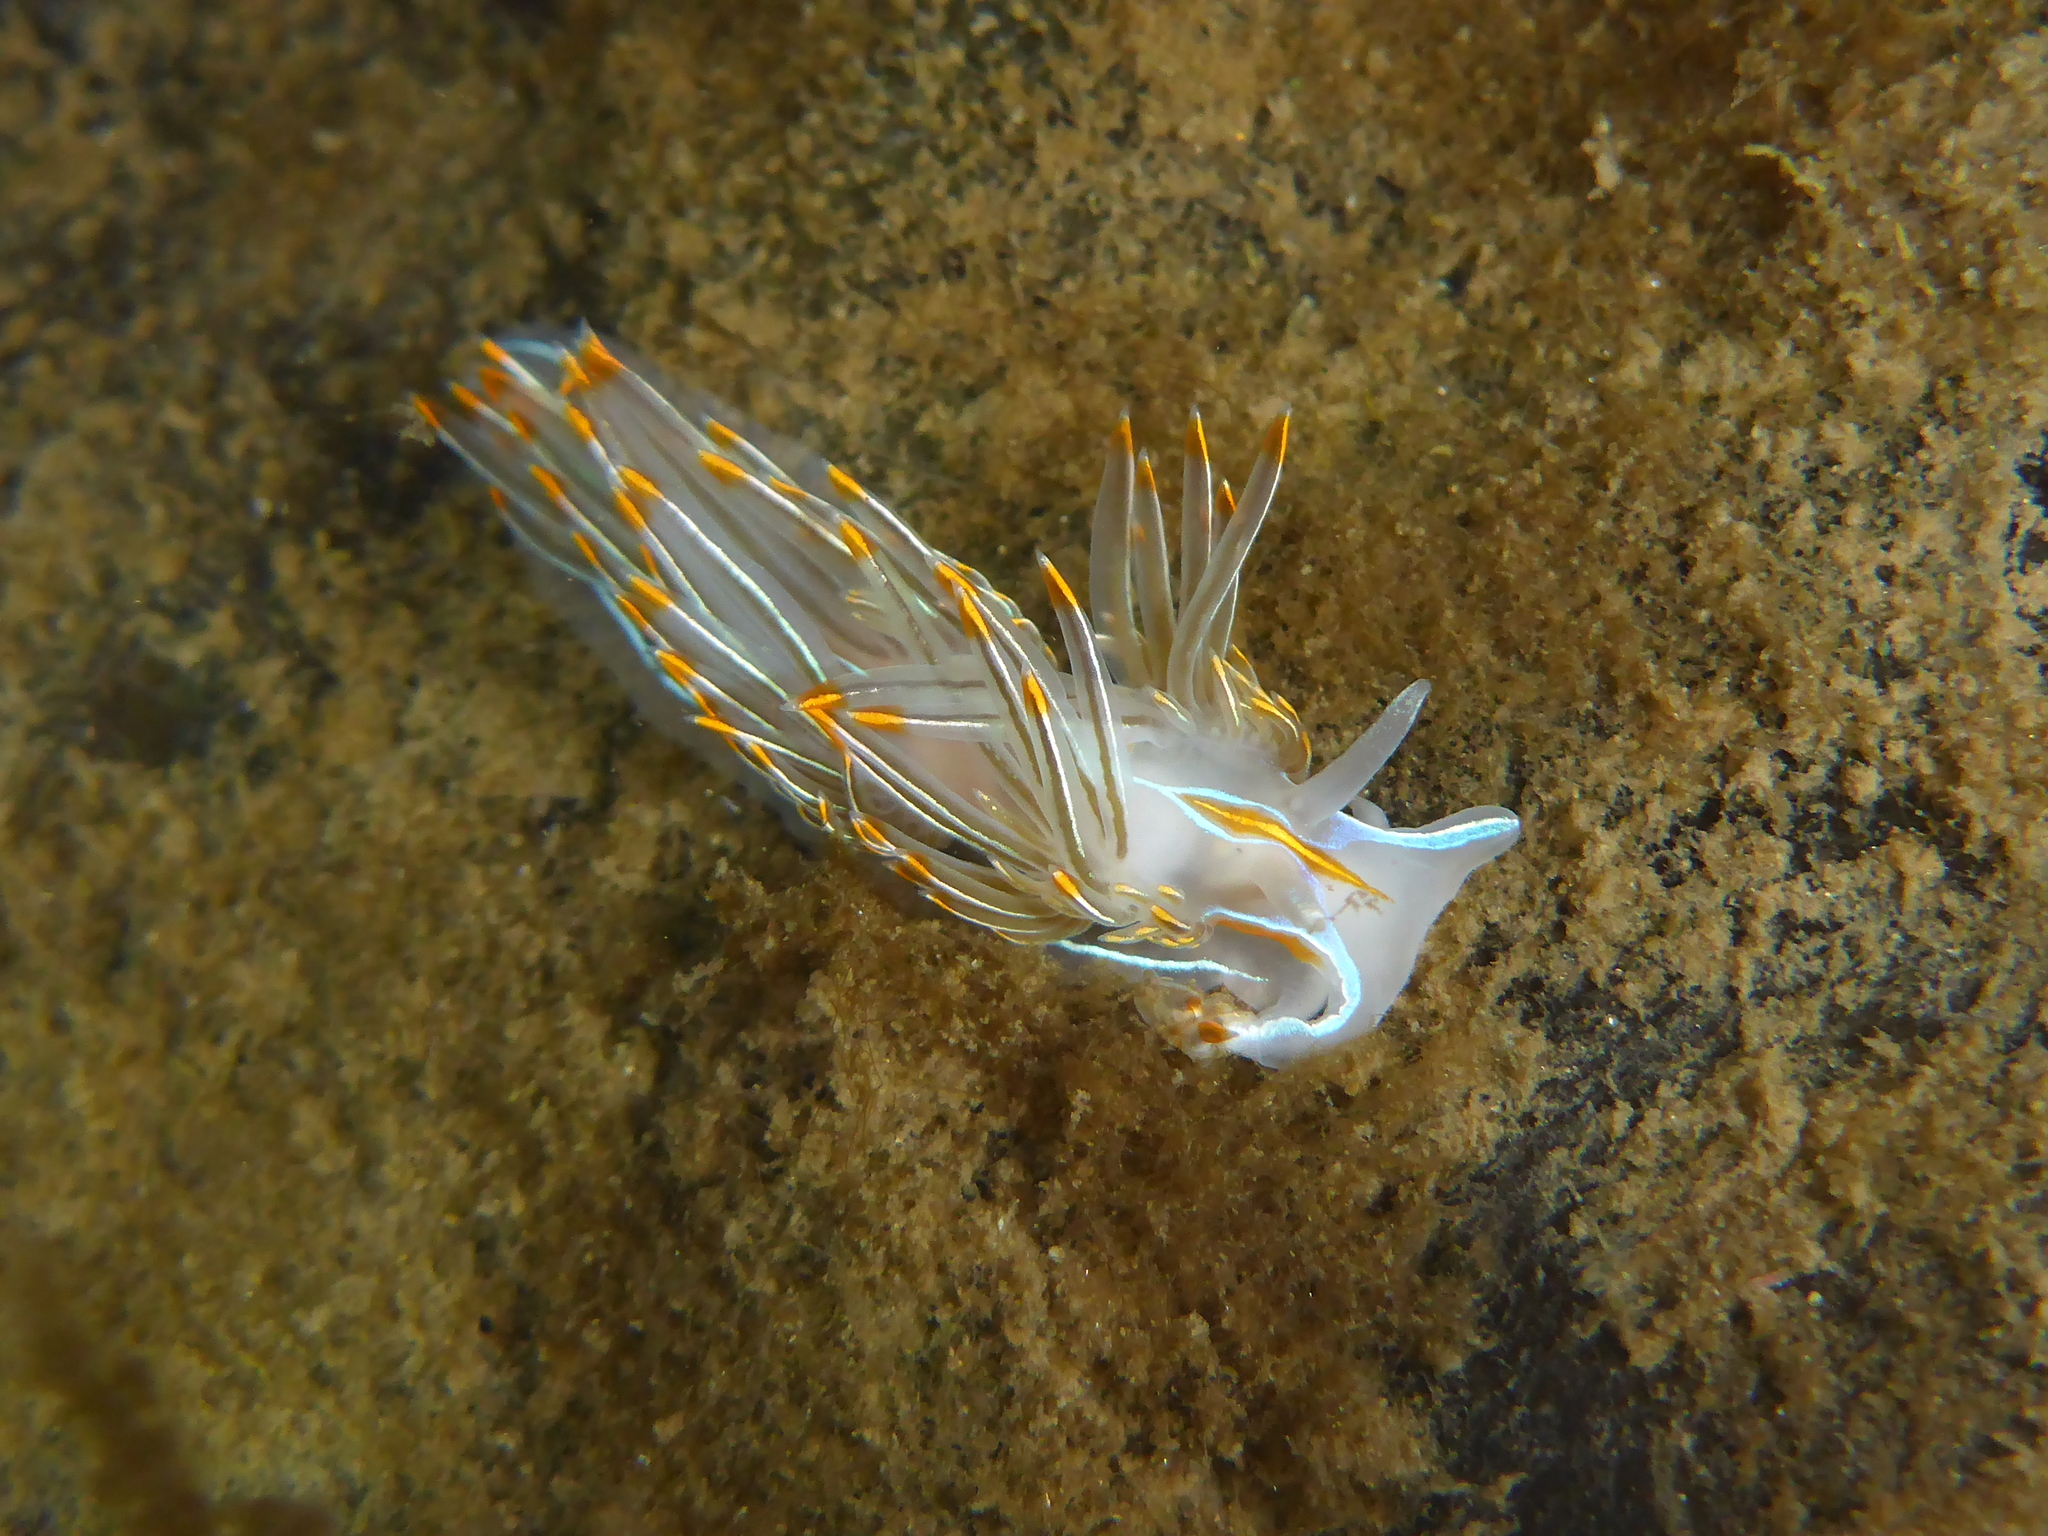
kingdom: Animalia
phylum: Mollusca
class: Gastropoda
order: Nudibranchia
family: Myrrhinidae
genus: Hermissenda
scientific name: Hermissenda crassicornis
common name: Hermissenda
